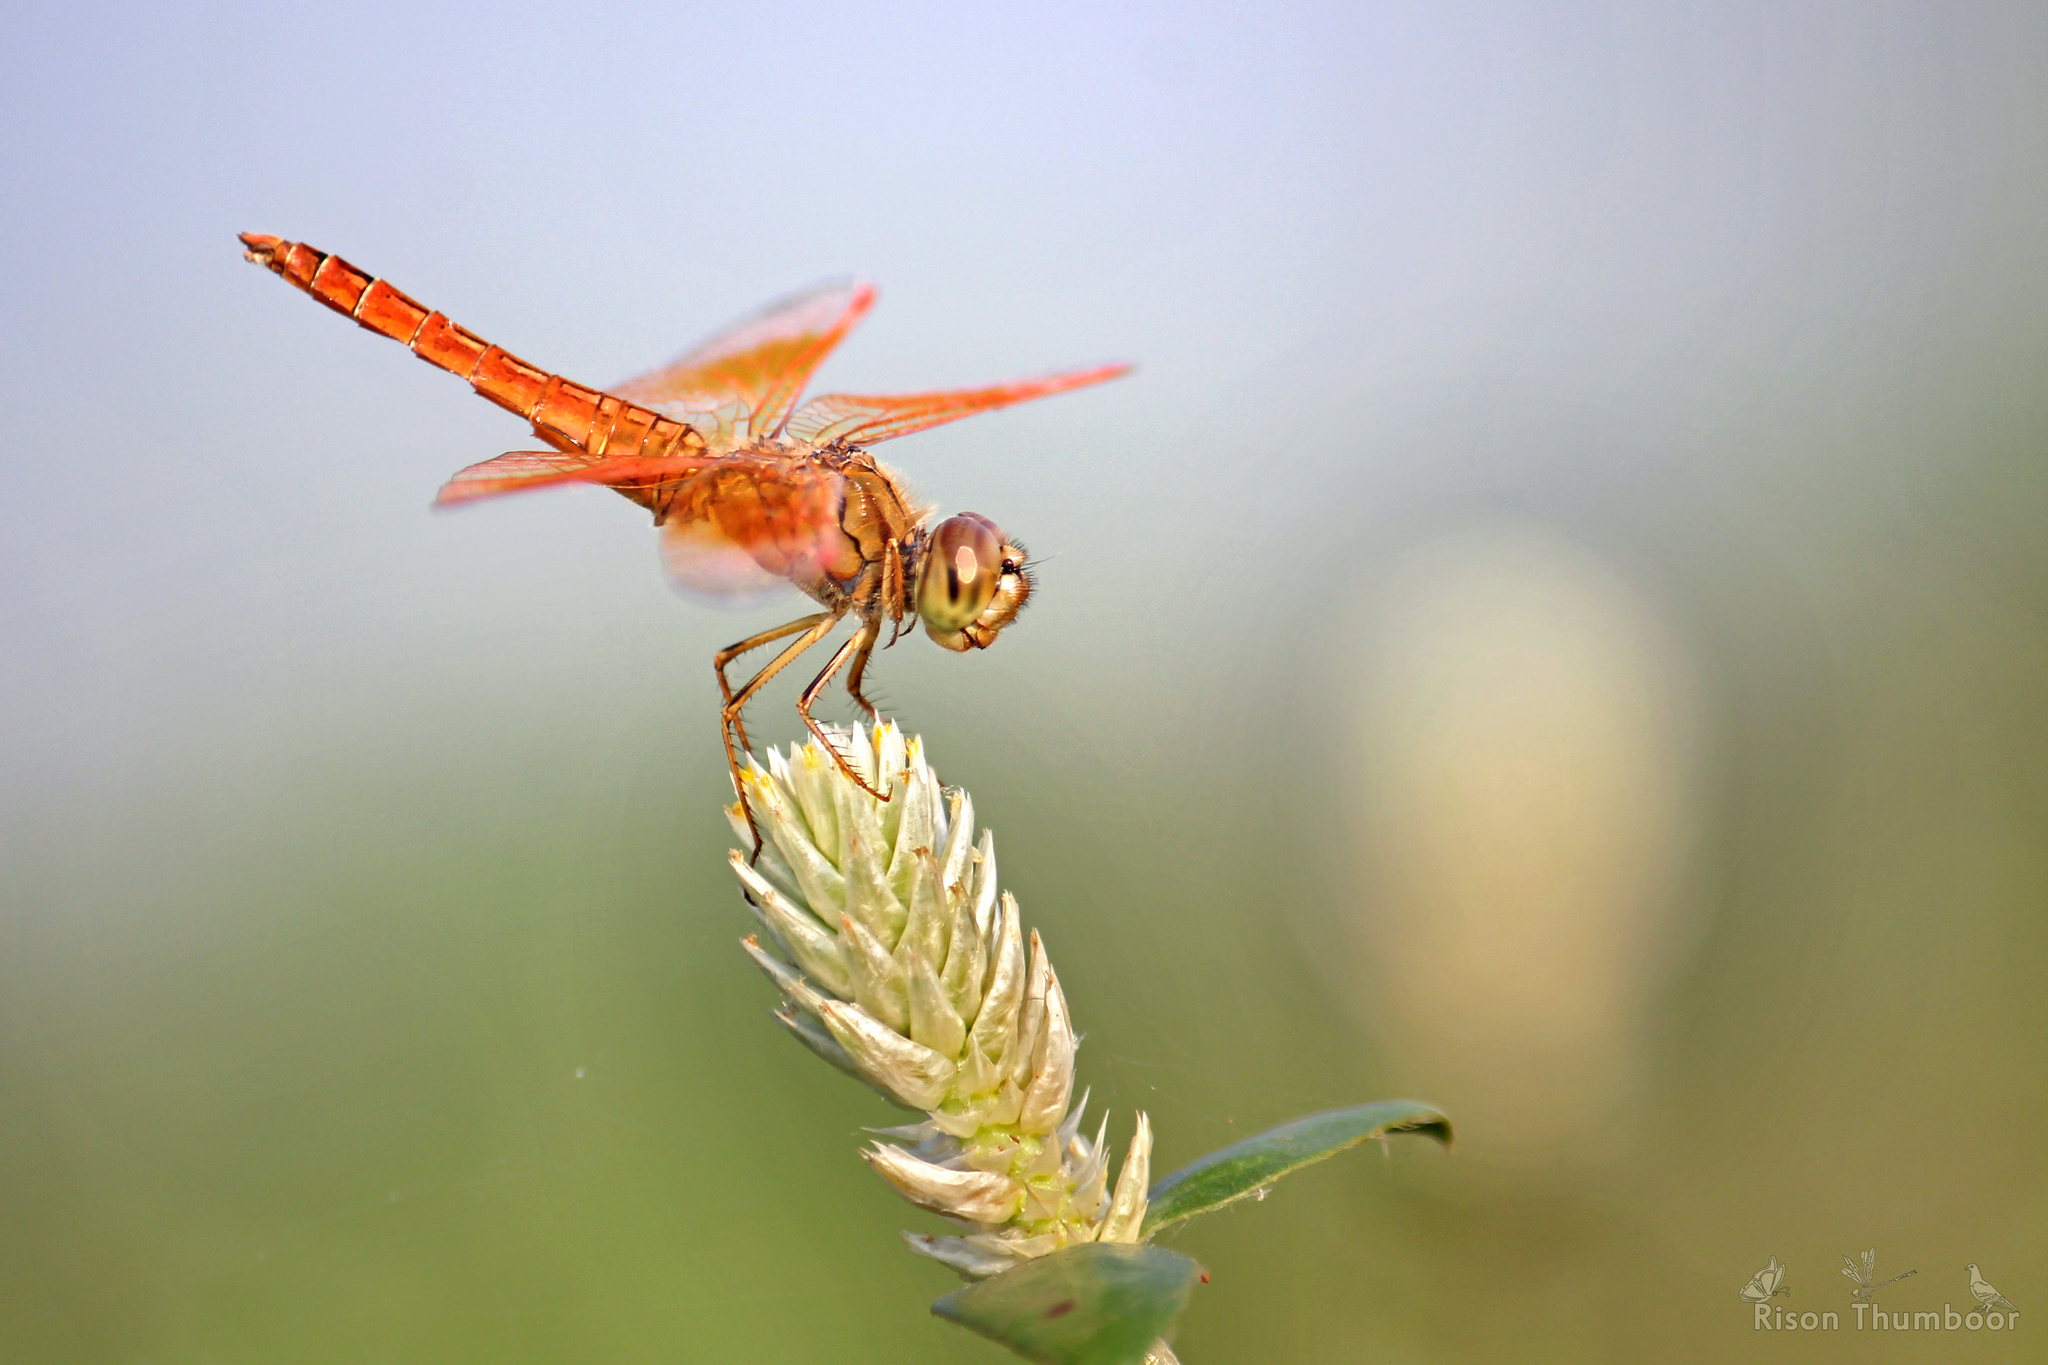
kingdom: Animalia
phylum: Arthropoda
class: Insecta
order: Odonata
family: Libellulidae
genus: Brachythemis
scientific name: Brachythemis contaminata
